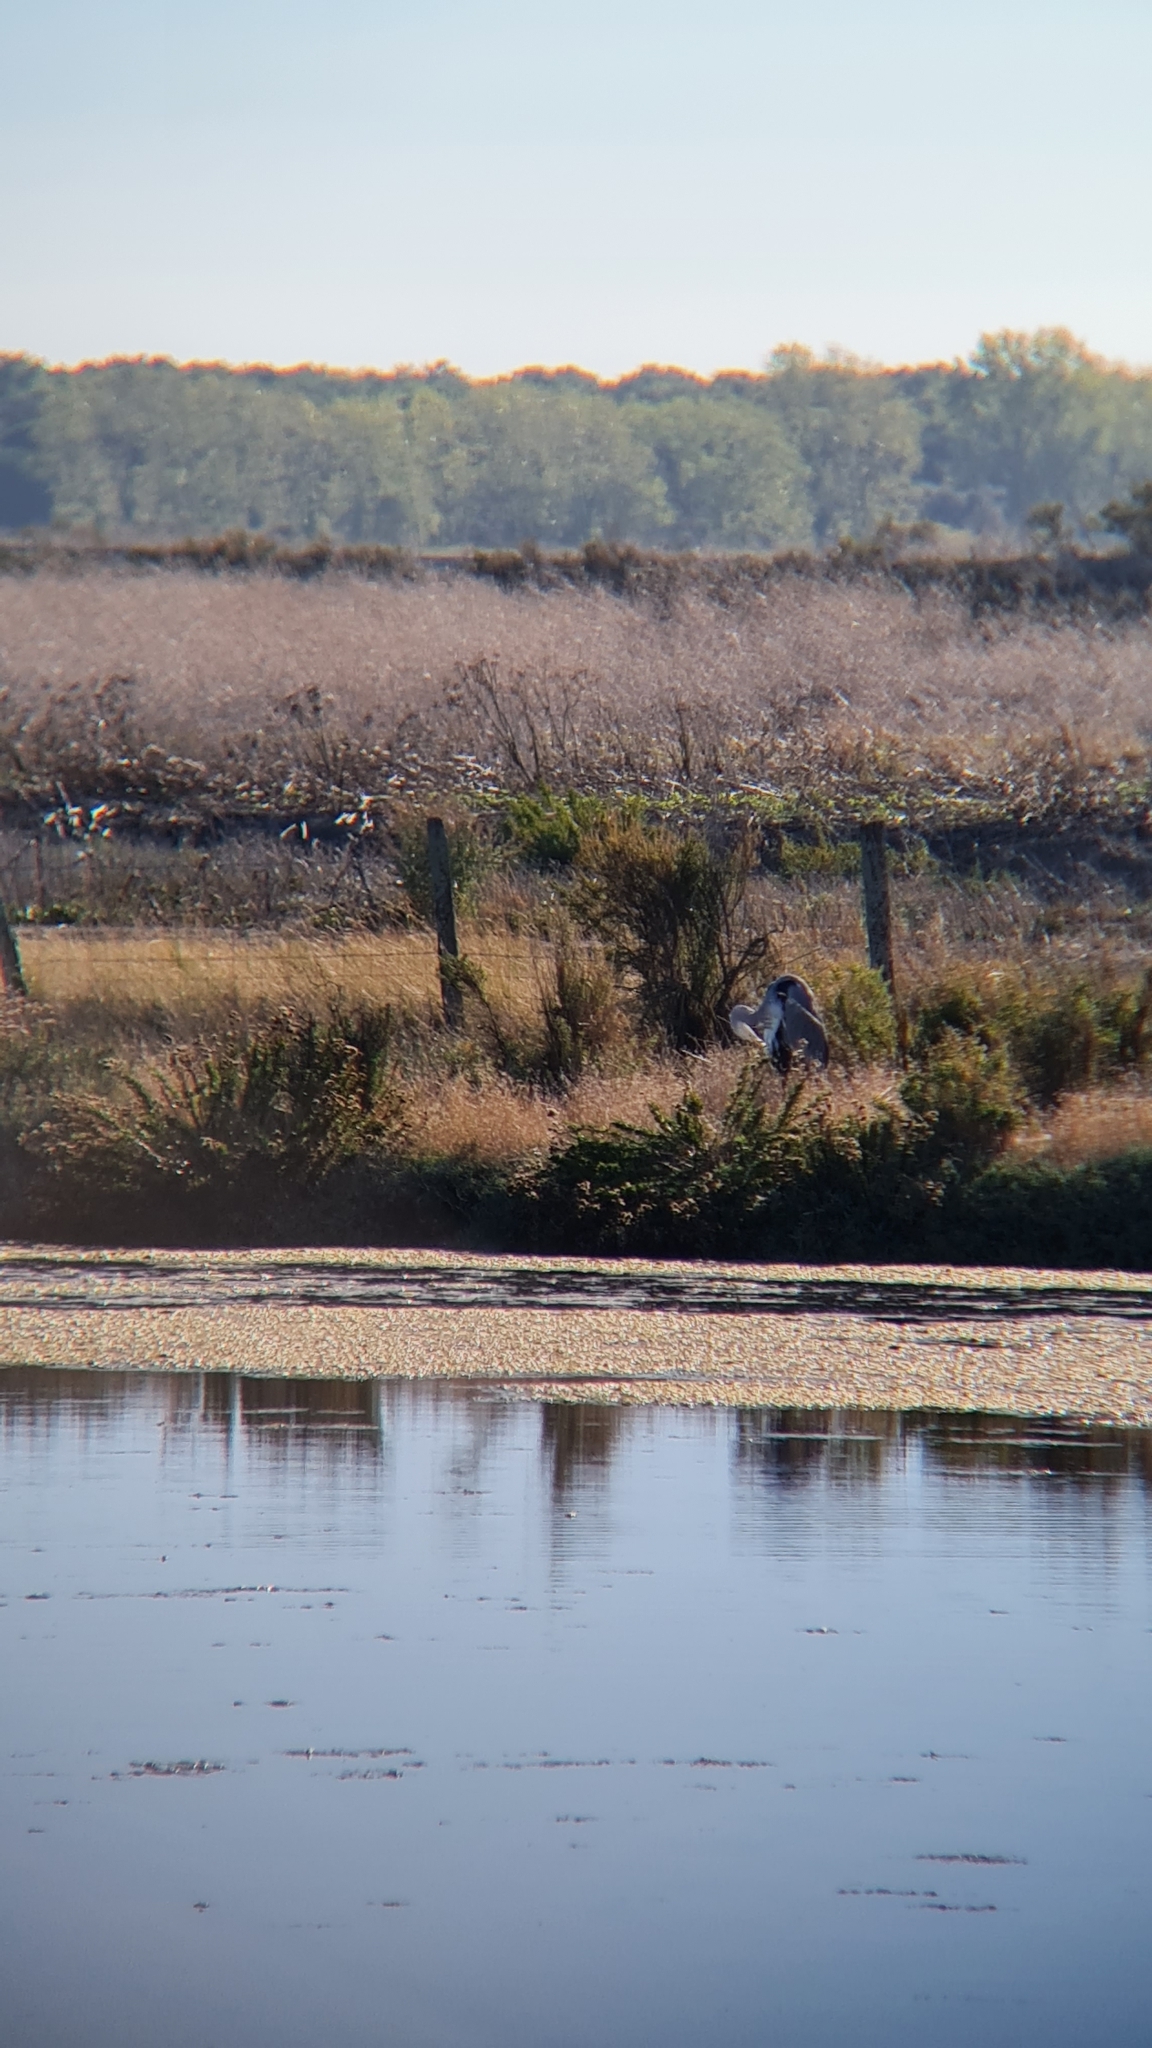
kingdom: Animalia
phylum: Chordata
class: Aves
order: Pelecaniformes
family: Ardeidae
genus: Ardea
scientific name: Ardea cinerea
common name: Grey heron
